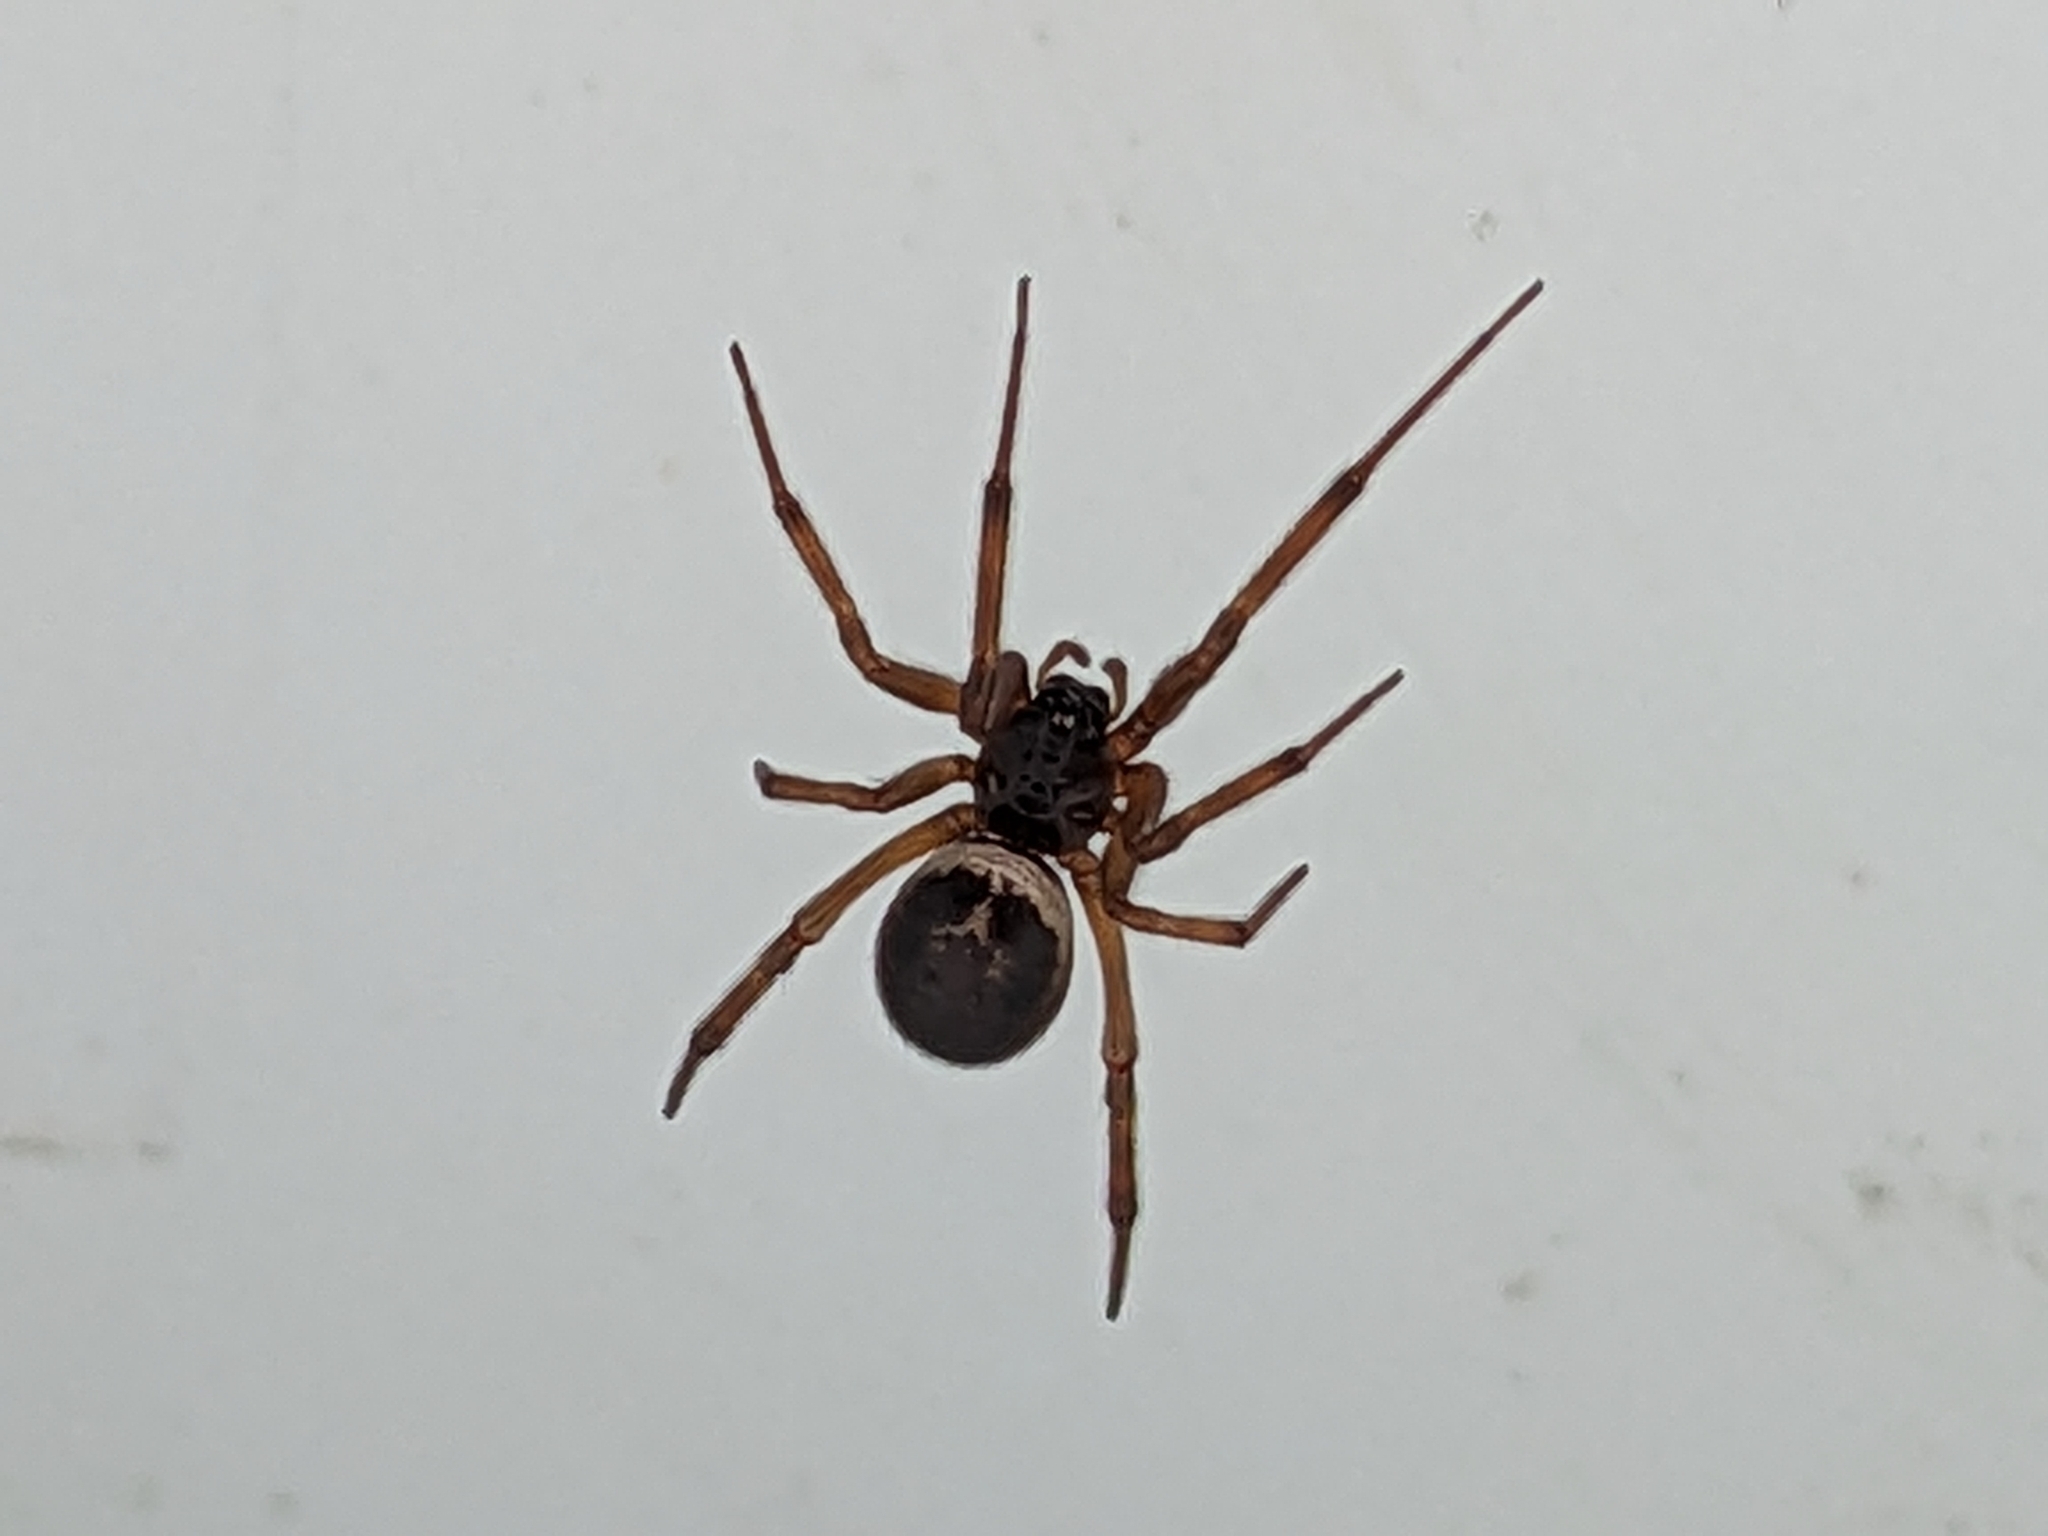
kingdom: Animalia
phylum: Arthropoda
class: Arachnida
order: Araneae
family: Theridiidae
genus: Steatoda
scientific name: Steatoda nobilis
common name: Cobweb weaver
